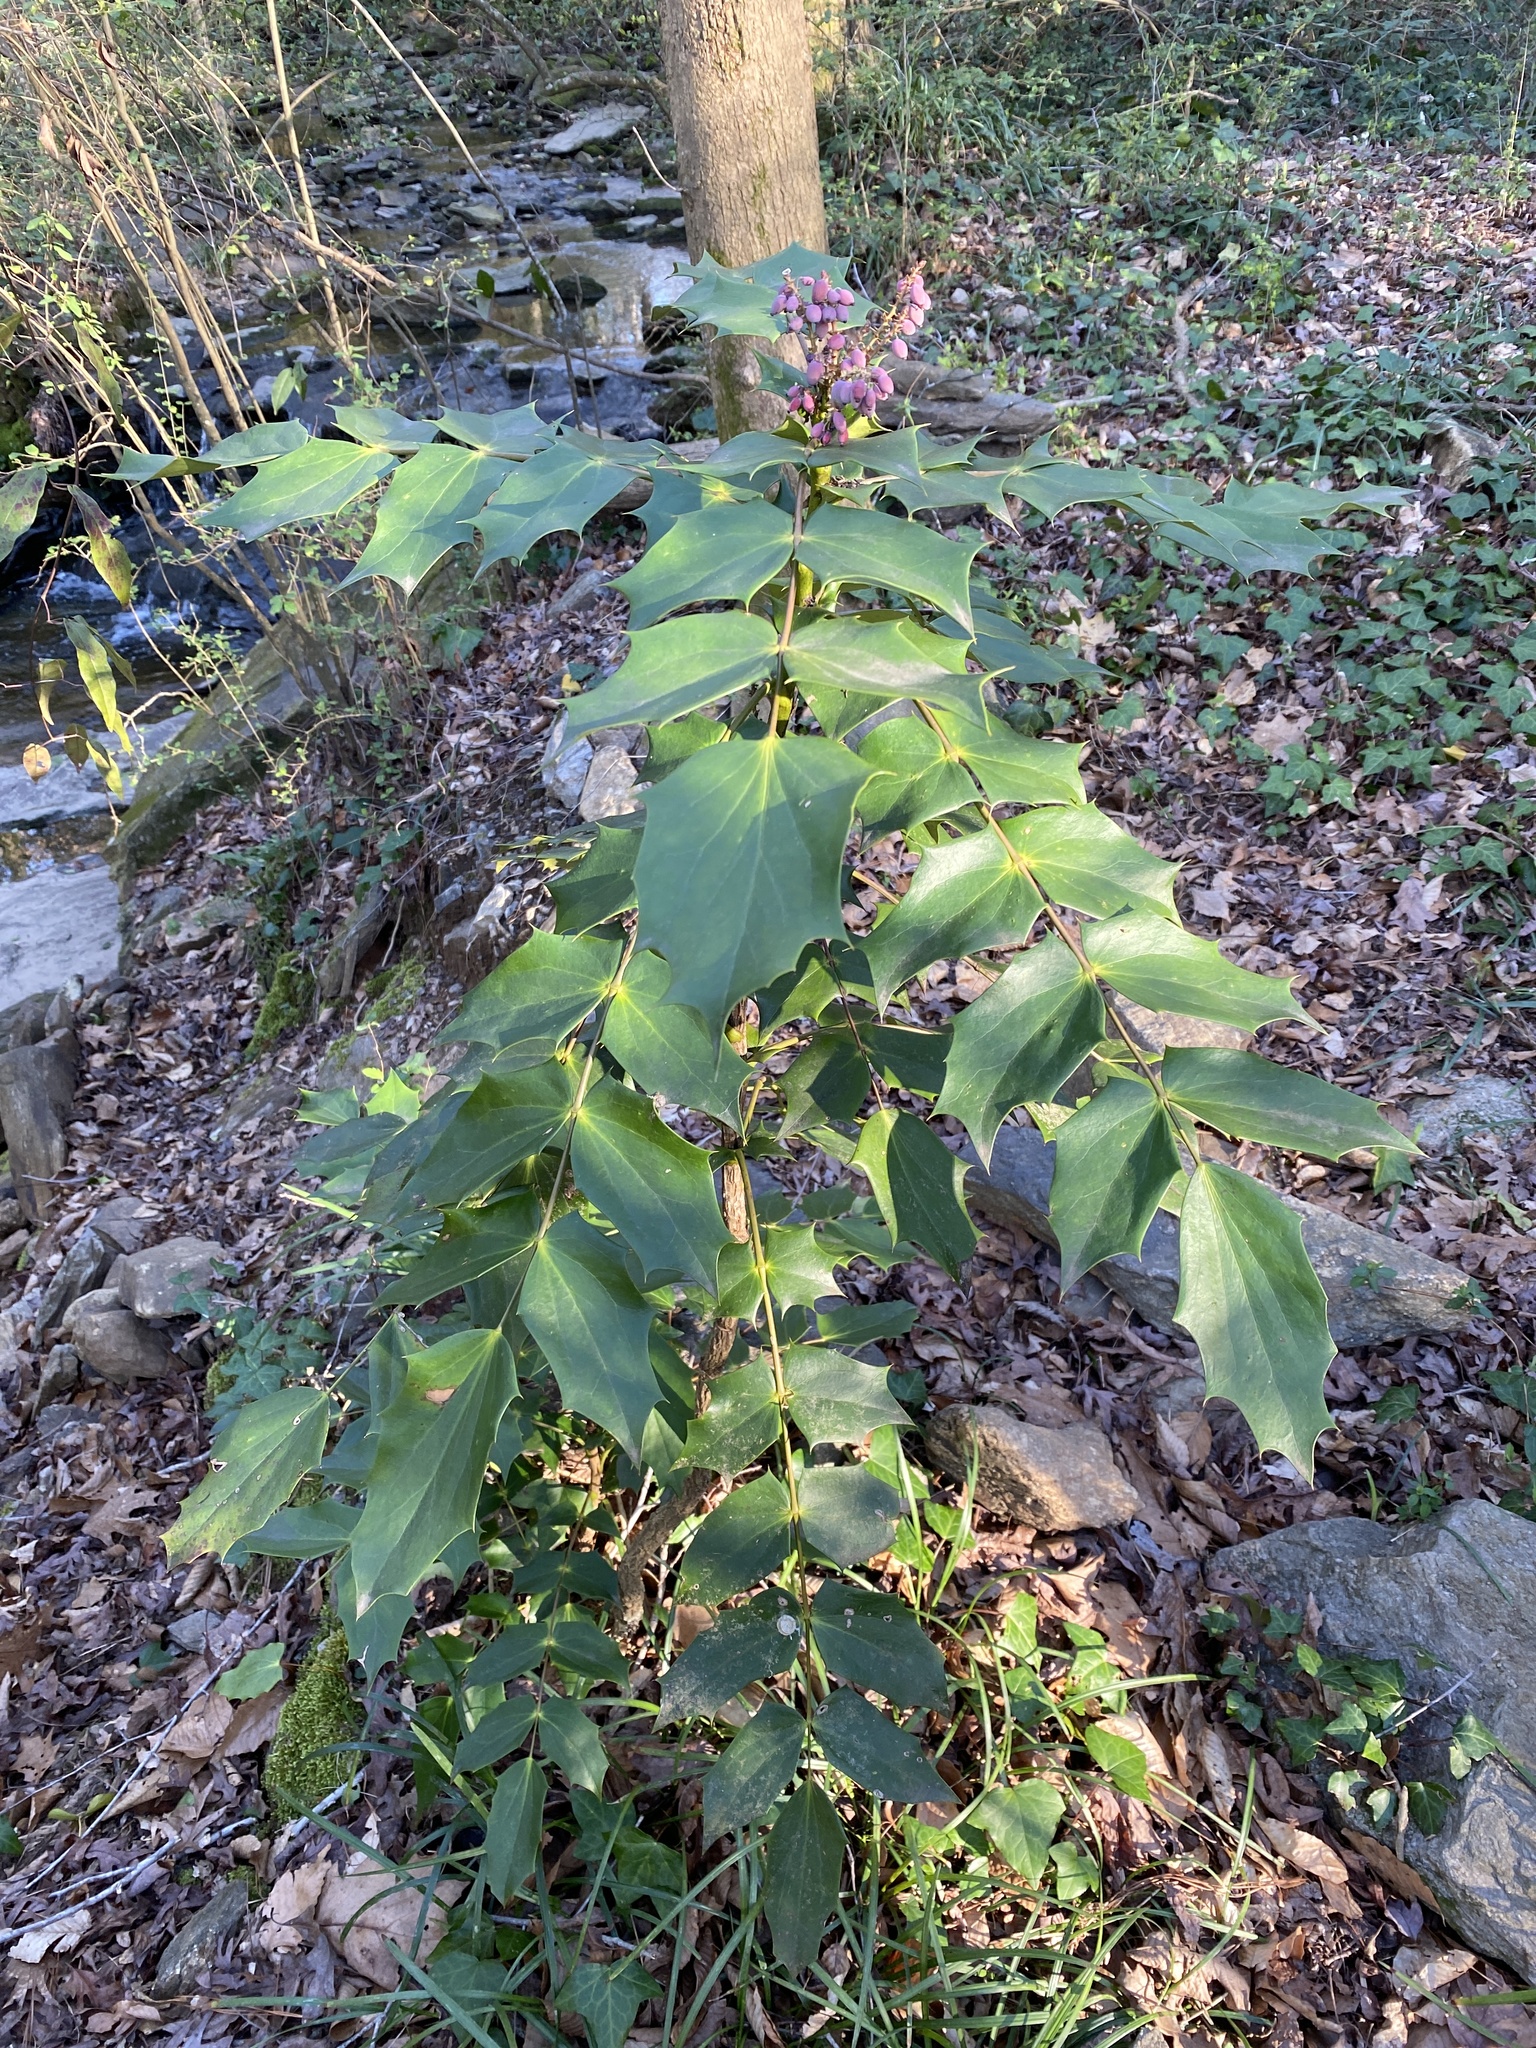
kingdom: Plantae
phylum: Tracheophyta
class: Magnoliopsida
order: Ranunculales
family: Berberidaceae
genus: Mahonia
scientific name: Mahonia bealei
